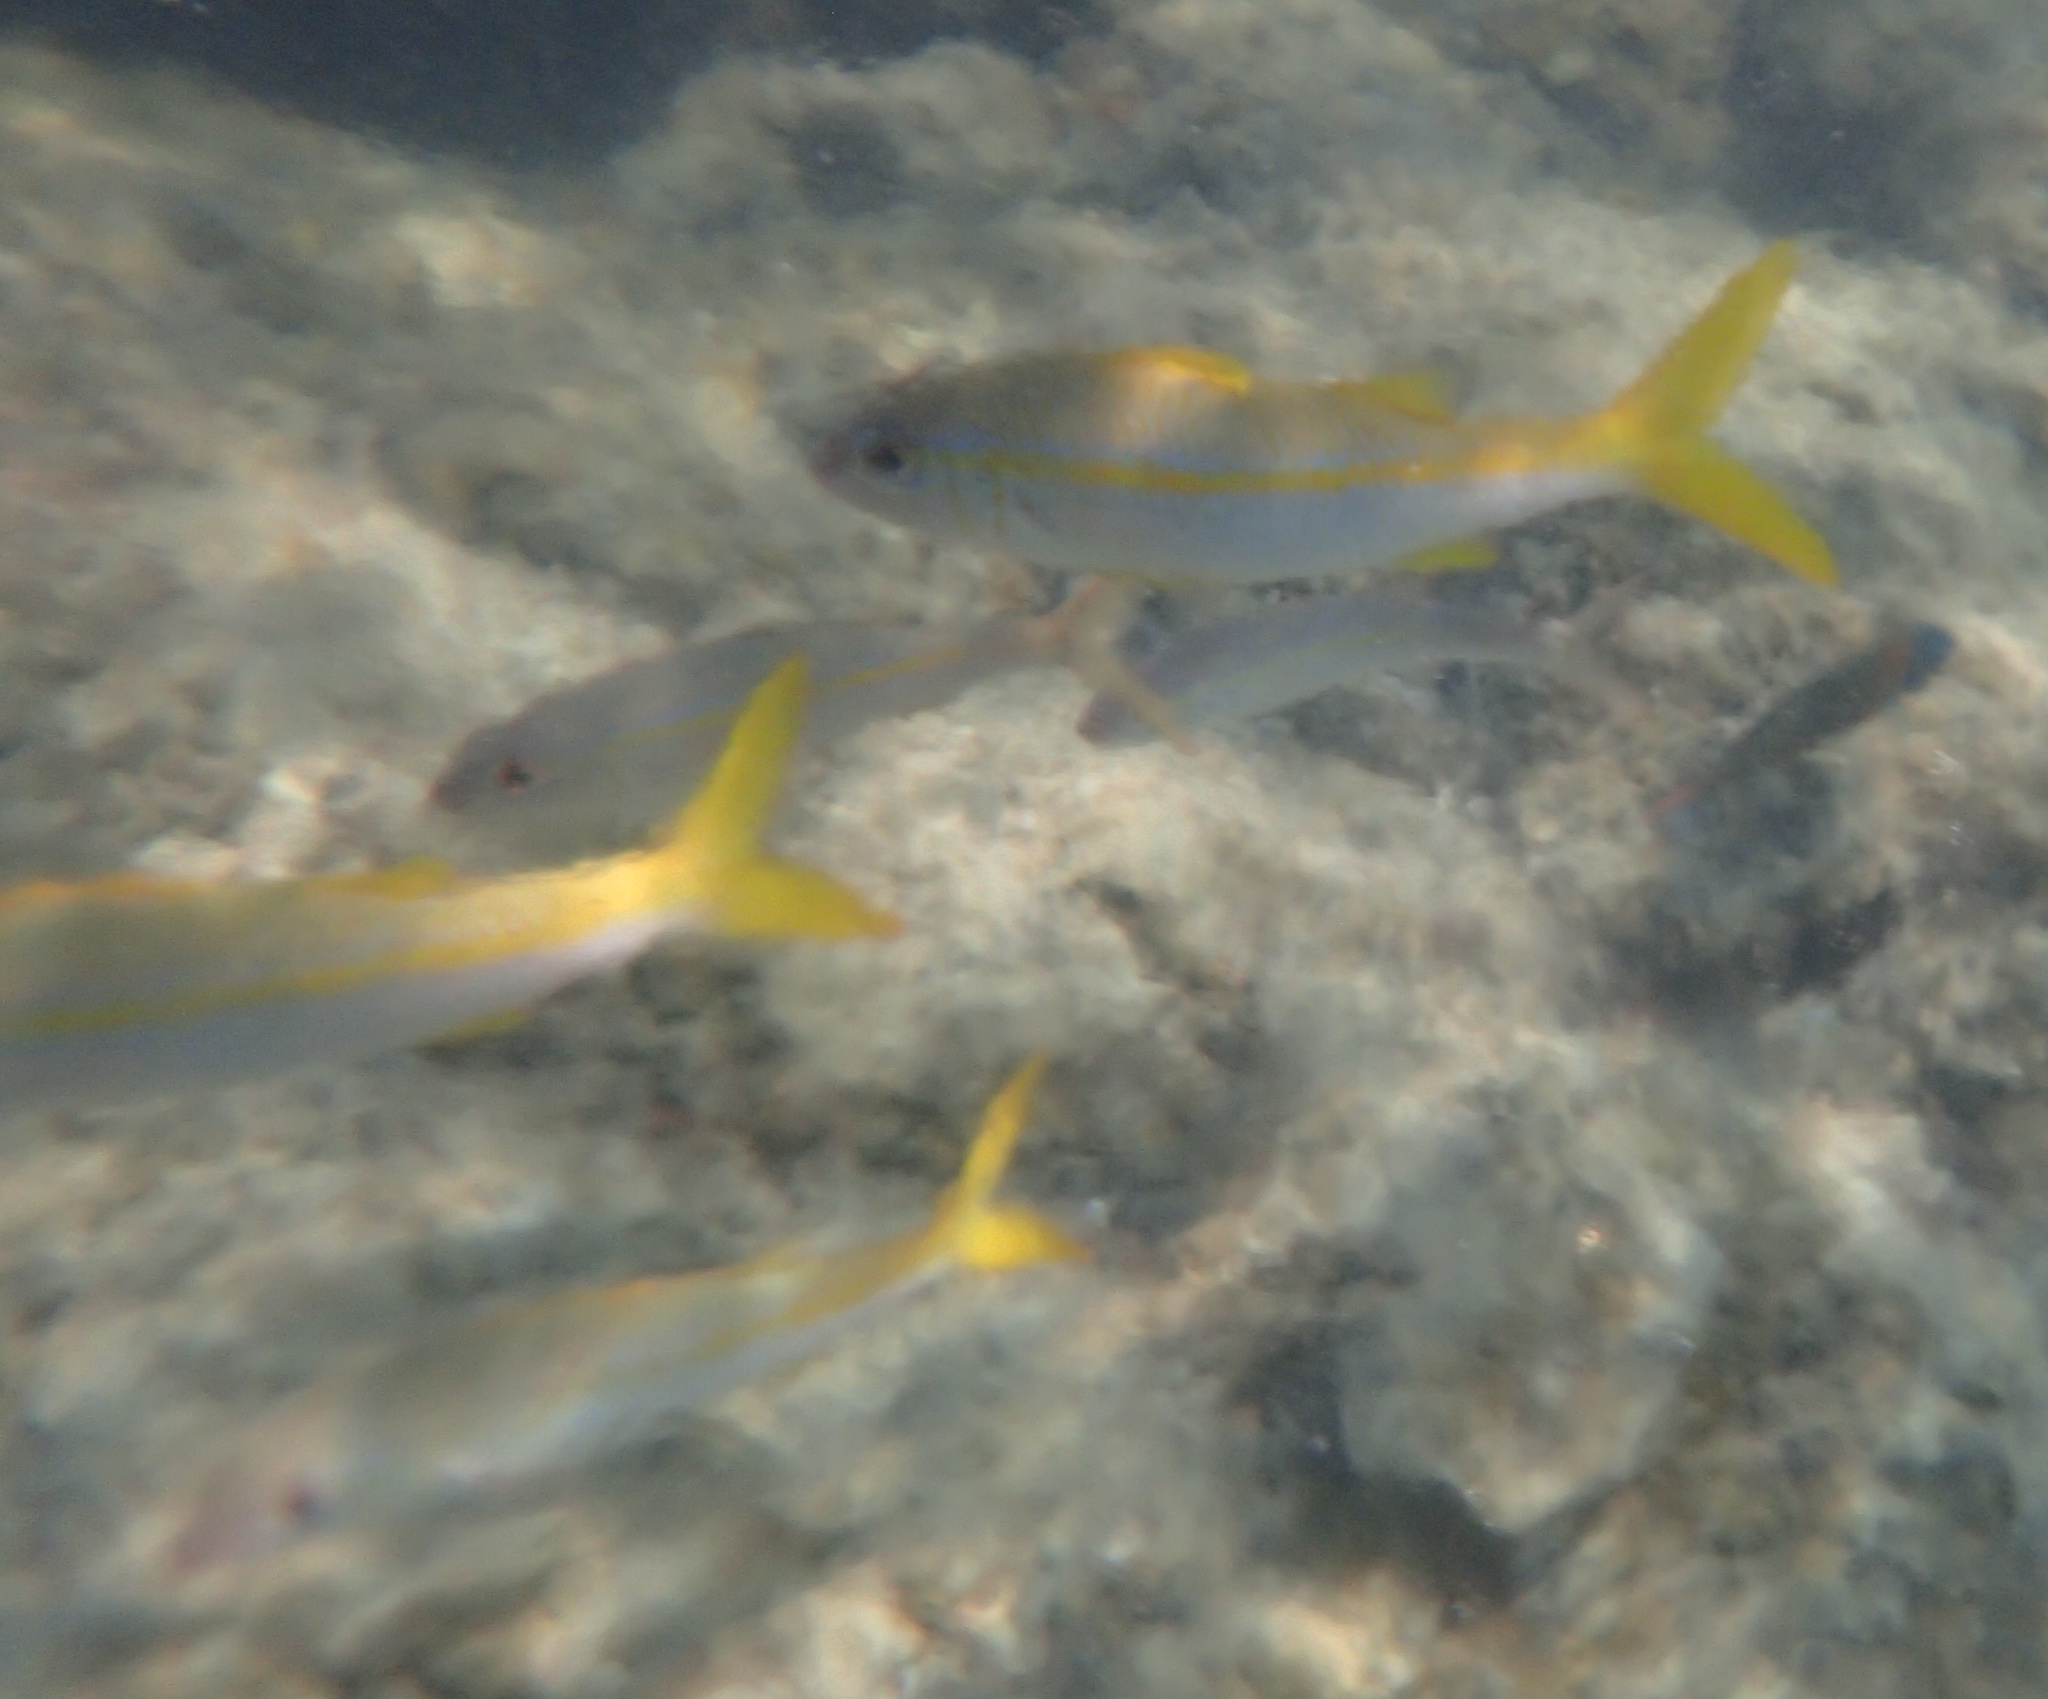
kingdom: Animalia
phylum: Chordata
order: Perciformes
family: Mullidae
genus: Mulloidichthys
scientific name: Mulloidichthys vanicolensis
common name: Yellowfin goatfish
